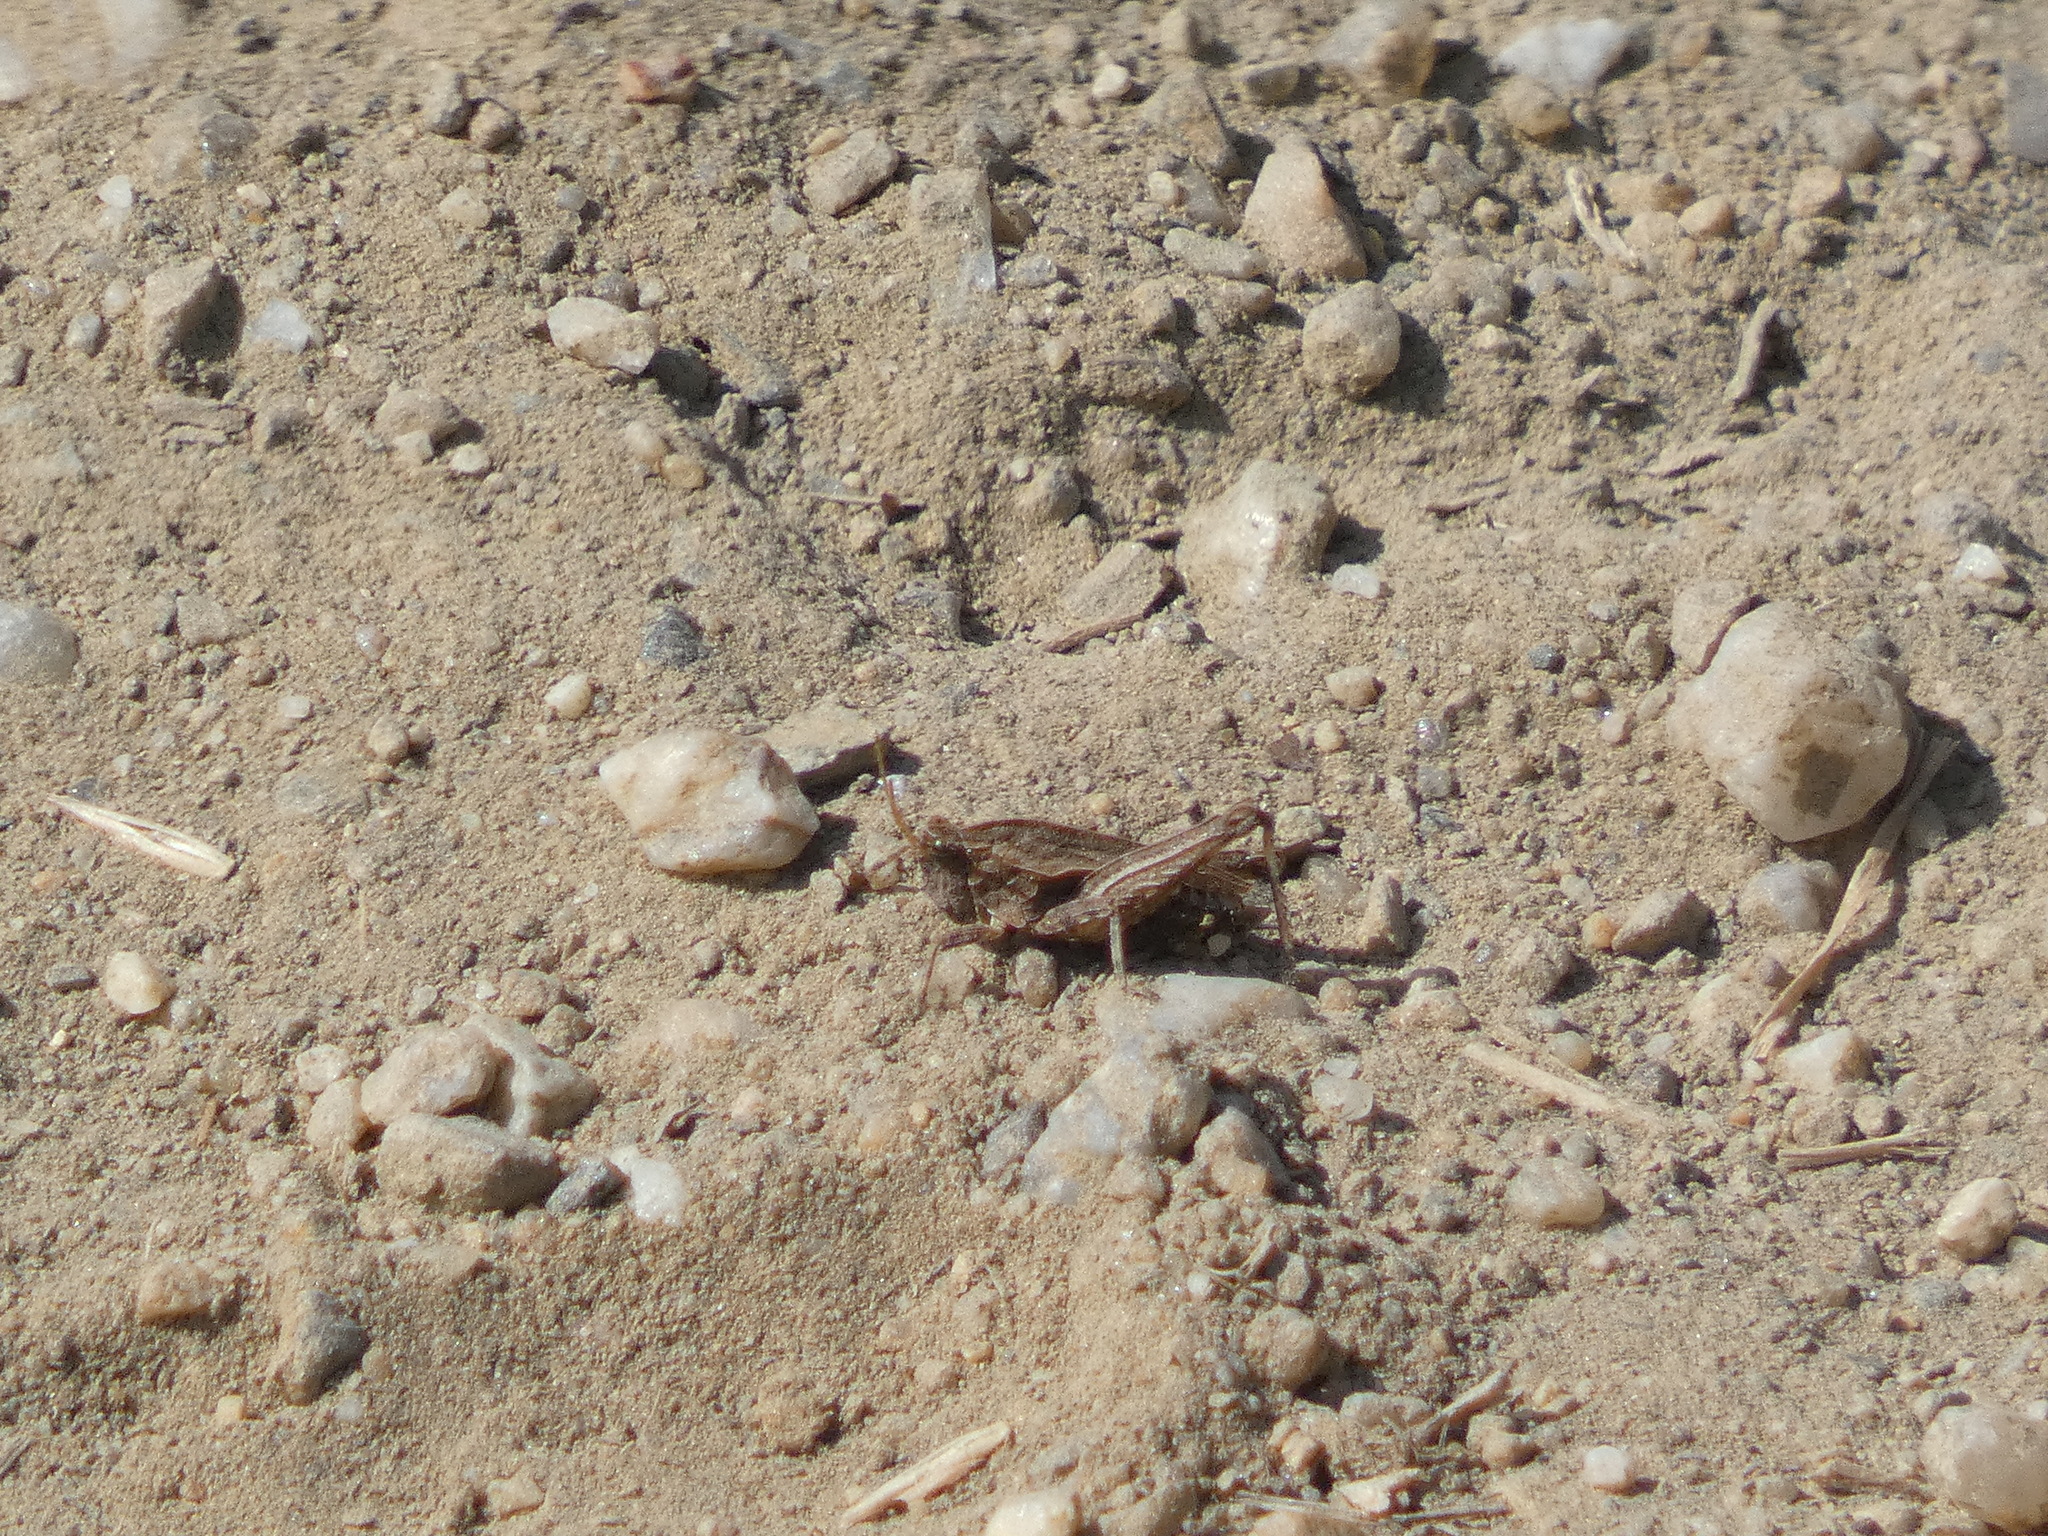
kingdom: Animalia
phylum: Arthropoda
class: Insecta
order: Orthoptera
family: Tetrigidae
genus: Tetrix
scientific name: Tetrix undulata
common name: Common groundhopper
